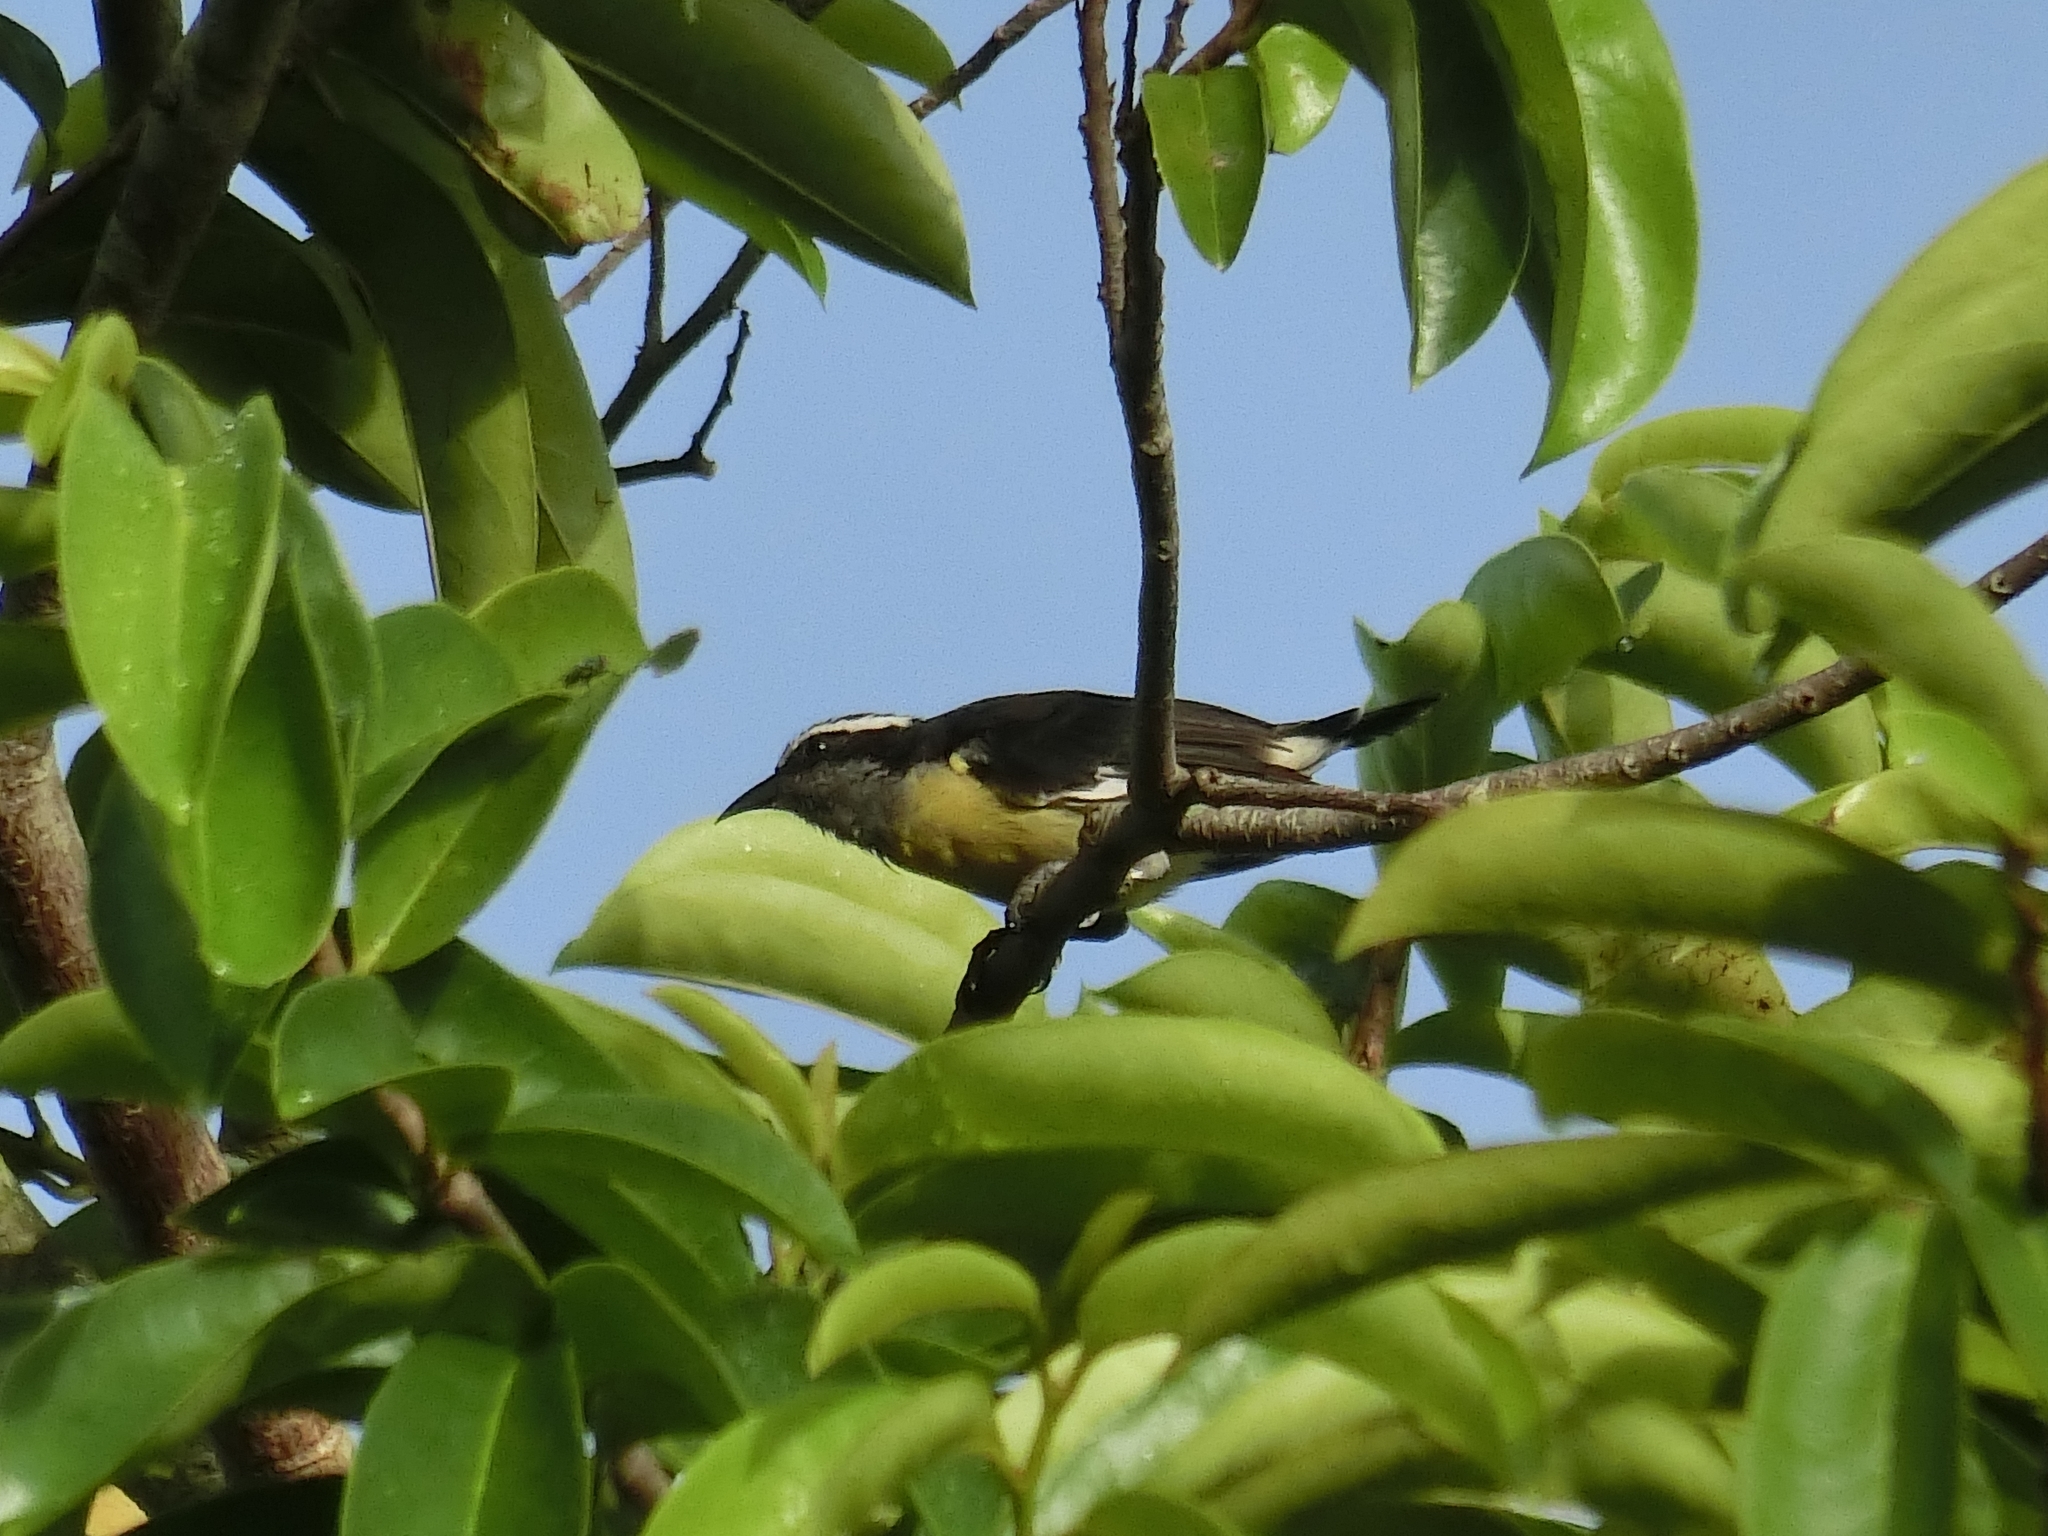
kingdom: Animalia
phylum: Chordata
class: Aves
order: Passeriformes
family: Thraupidae
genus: Coereba
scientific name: Coereba flaveola
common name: Bananaquit
